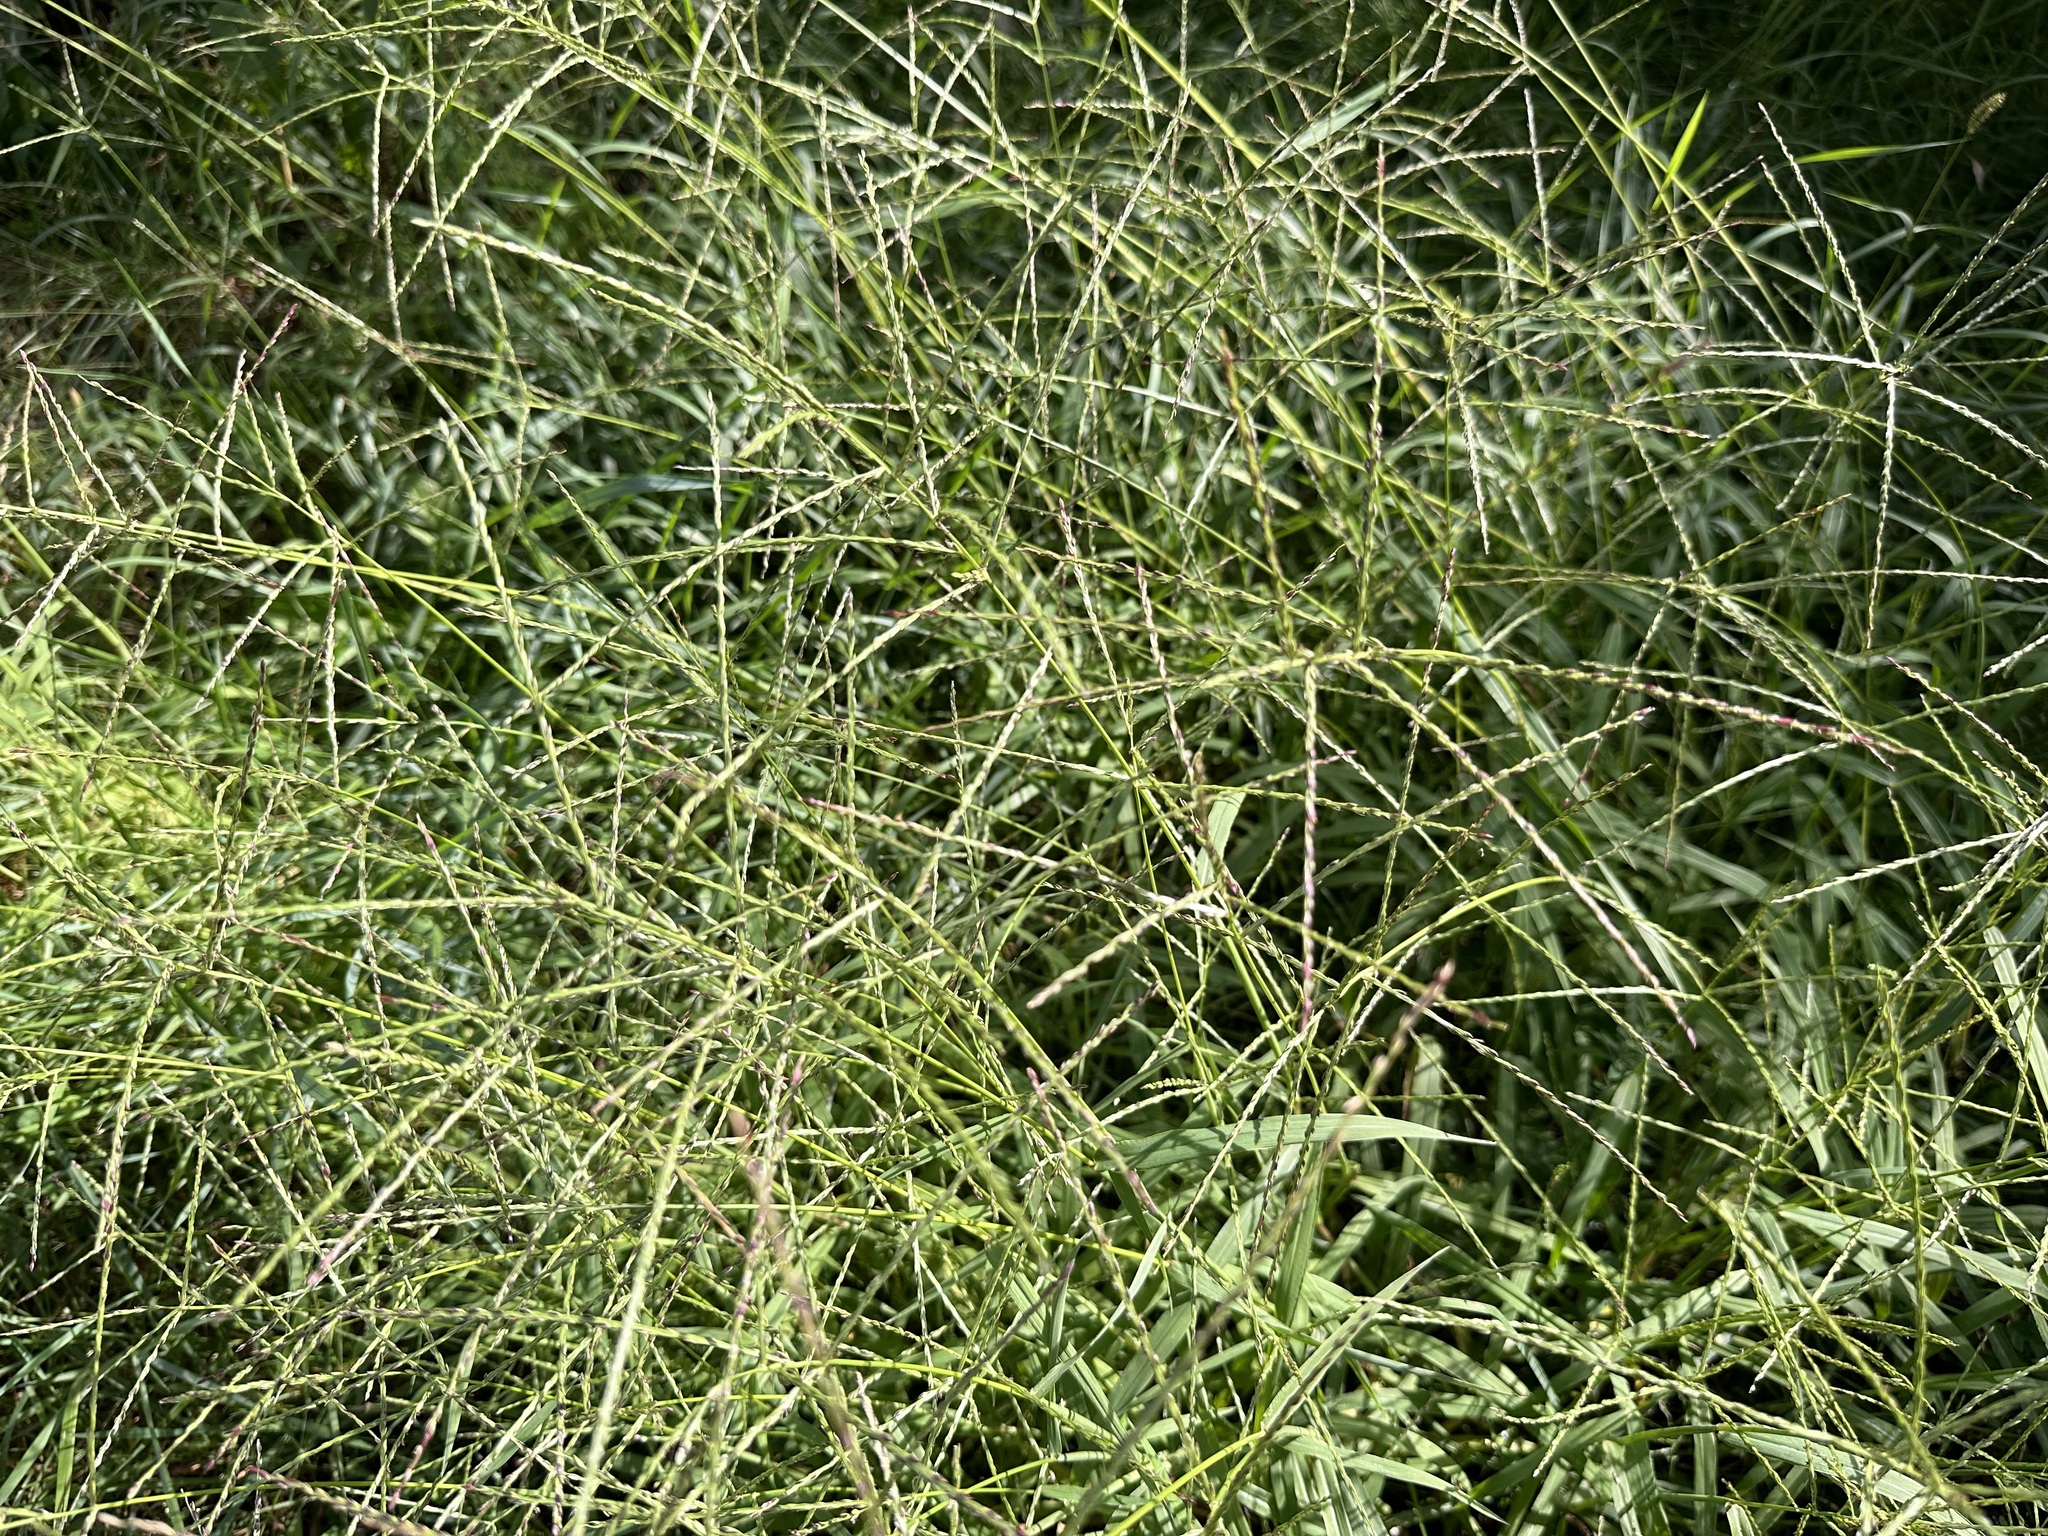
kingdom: Plantae
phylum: Tracheophyta
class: Liliopsida
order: Poales
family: Poaceae
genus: Digitaria
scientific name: Digitaria sanguinalis
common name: Hairy crabgrass
